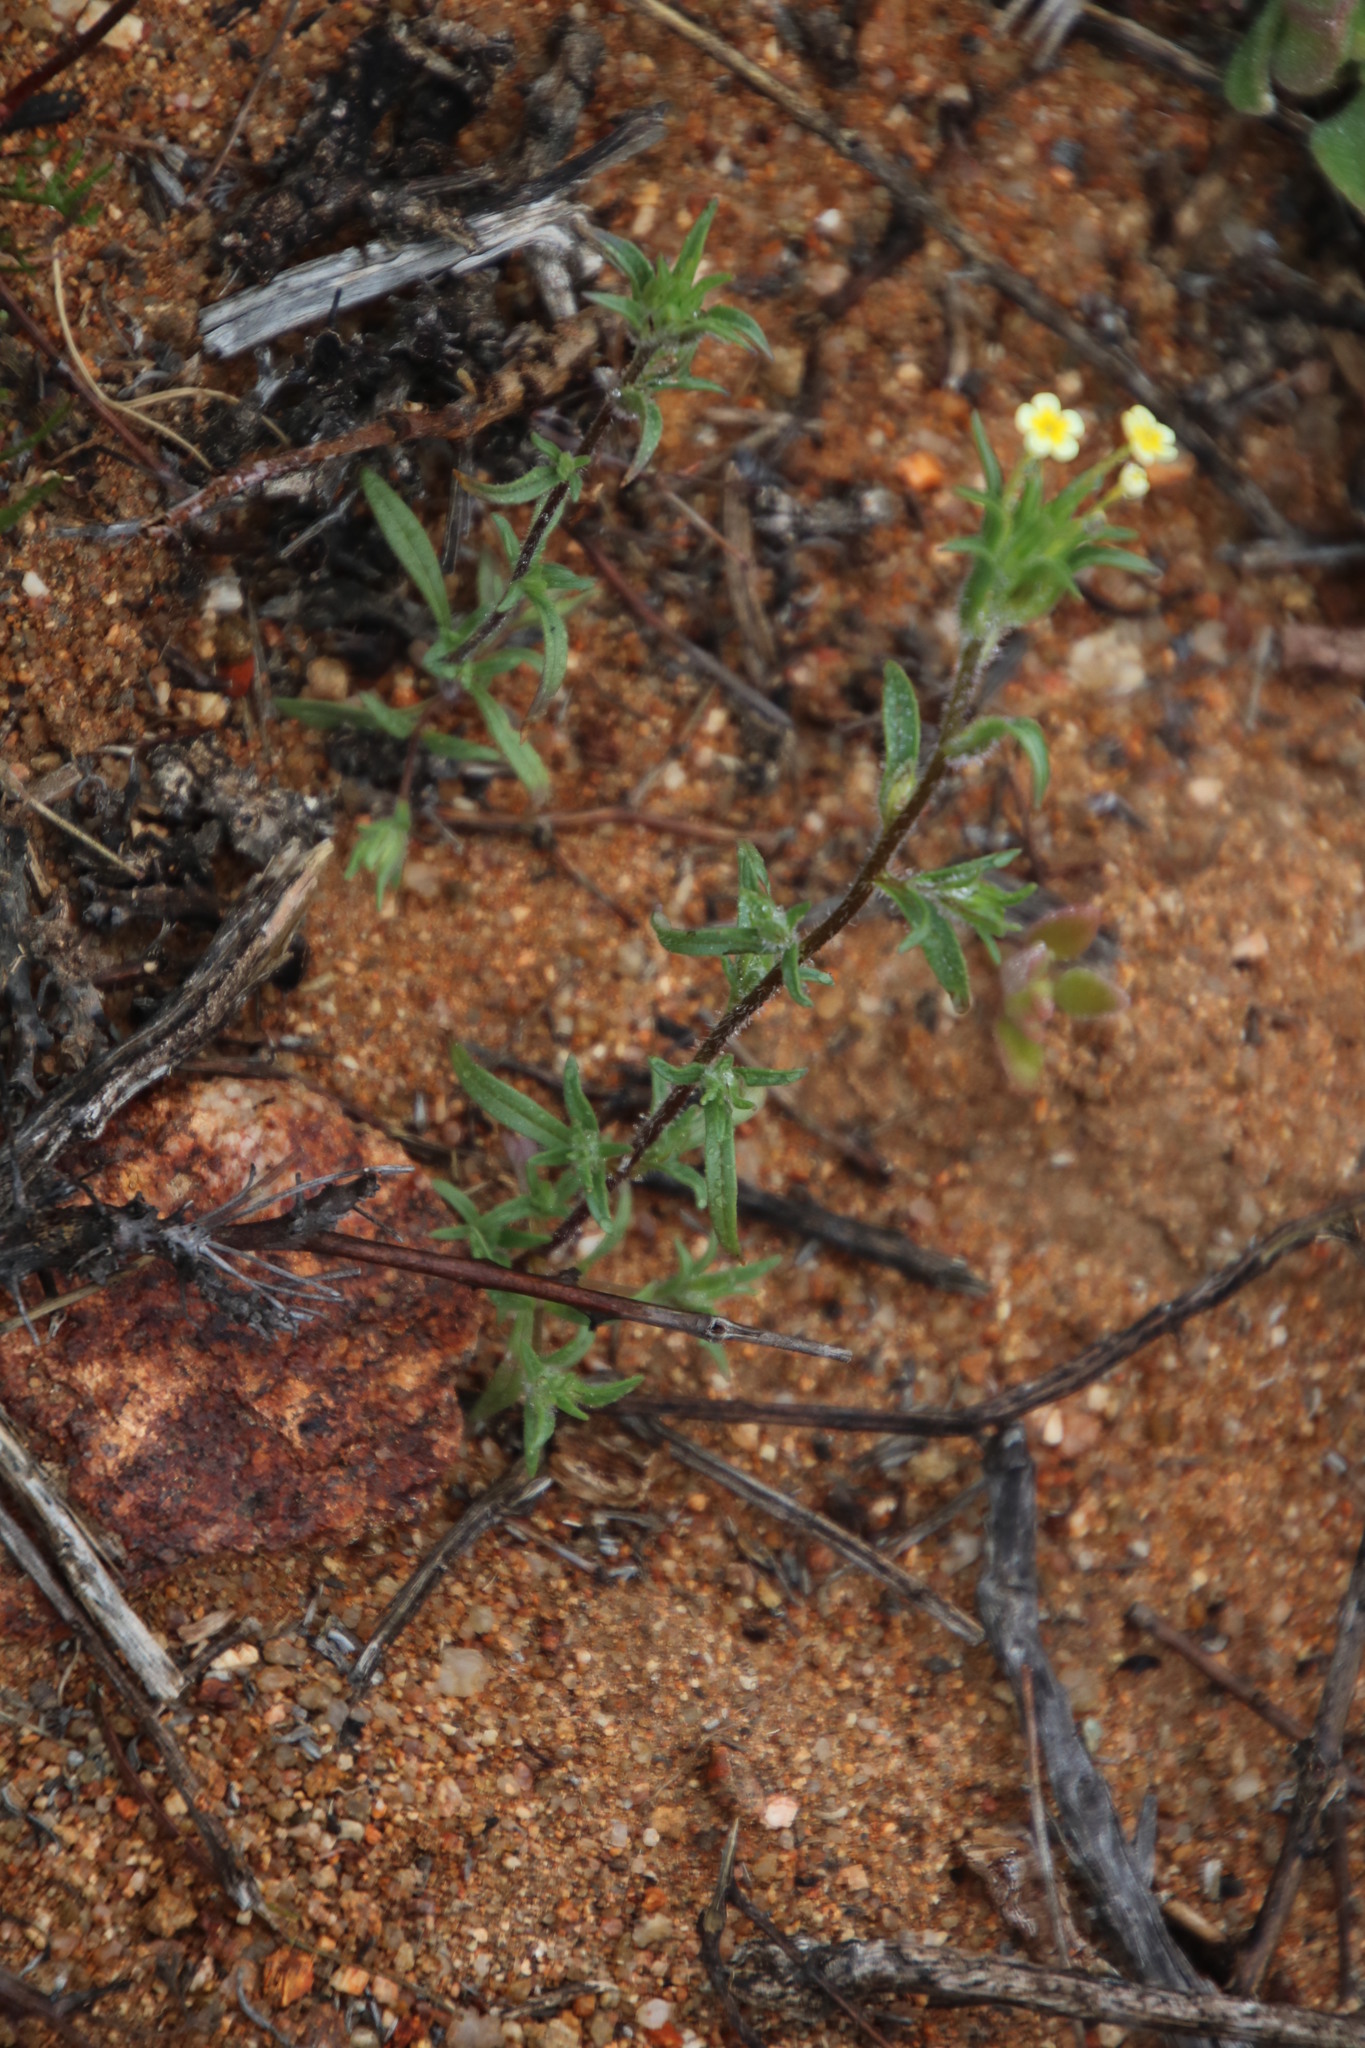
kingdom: Plantae
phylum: Tracheophyta
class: Magnoliopsida
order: Lamiales
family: Scrophulariaceae
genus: Zaluzianskya
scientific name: Zaluzianskya benthamiana
